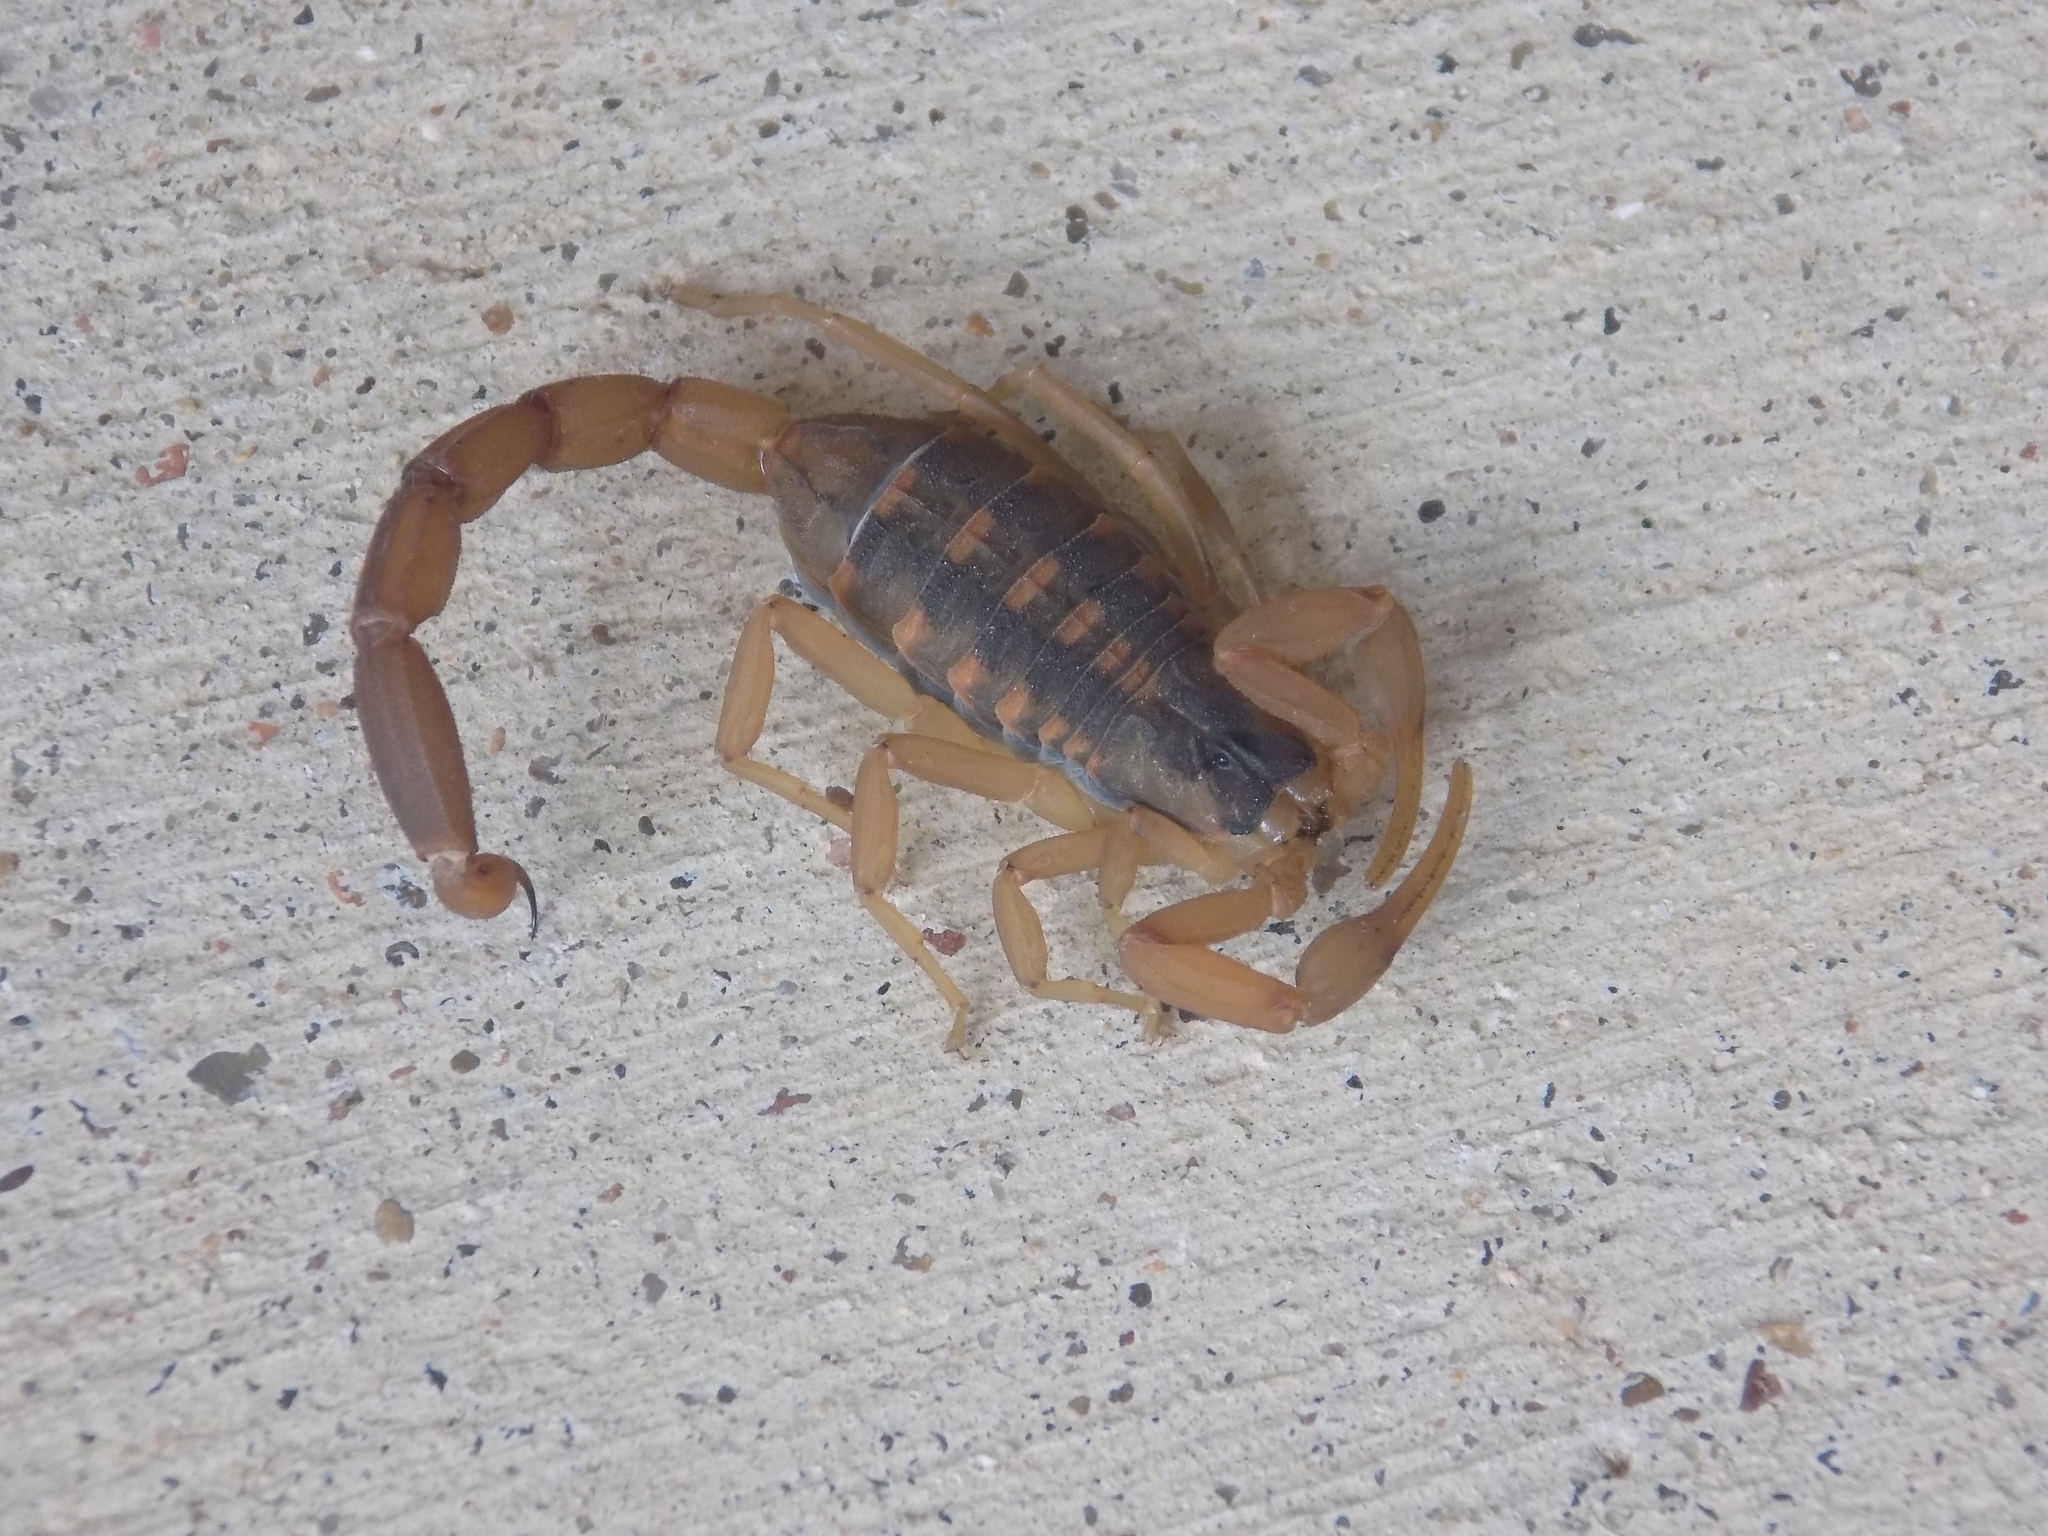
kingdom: Animalia
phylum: Arthropoda
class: Arachnida
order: Scorpiones
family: Buthidae
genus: Centruroides
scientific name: Centruroides vittatus
